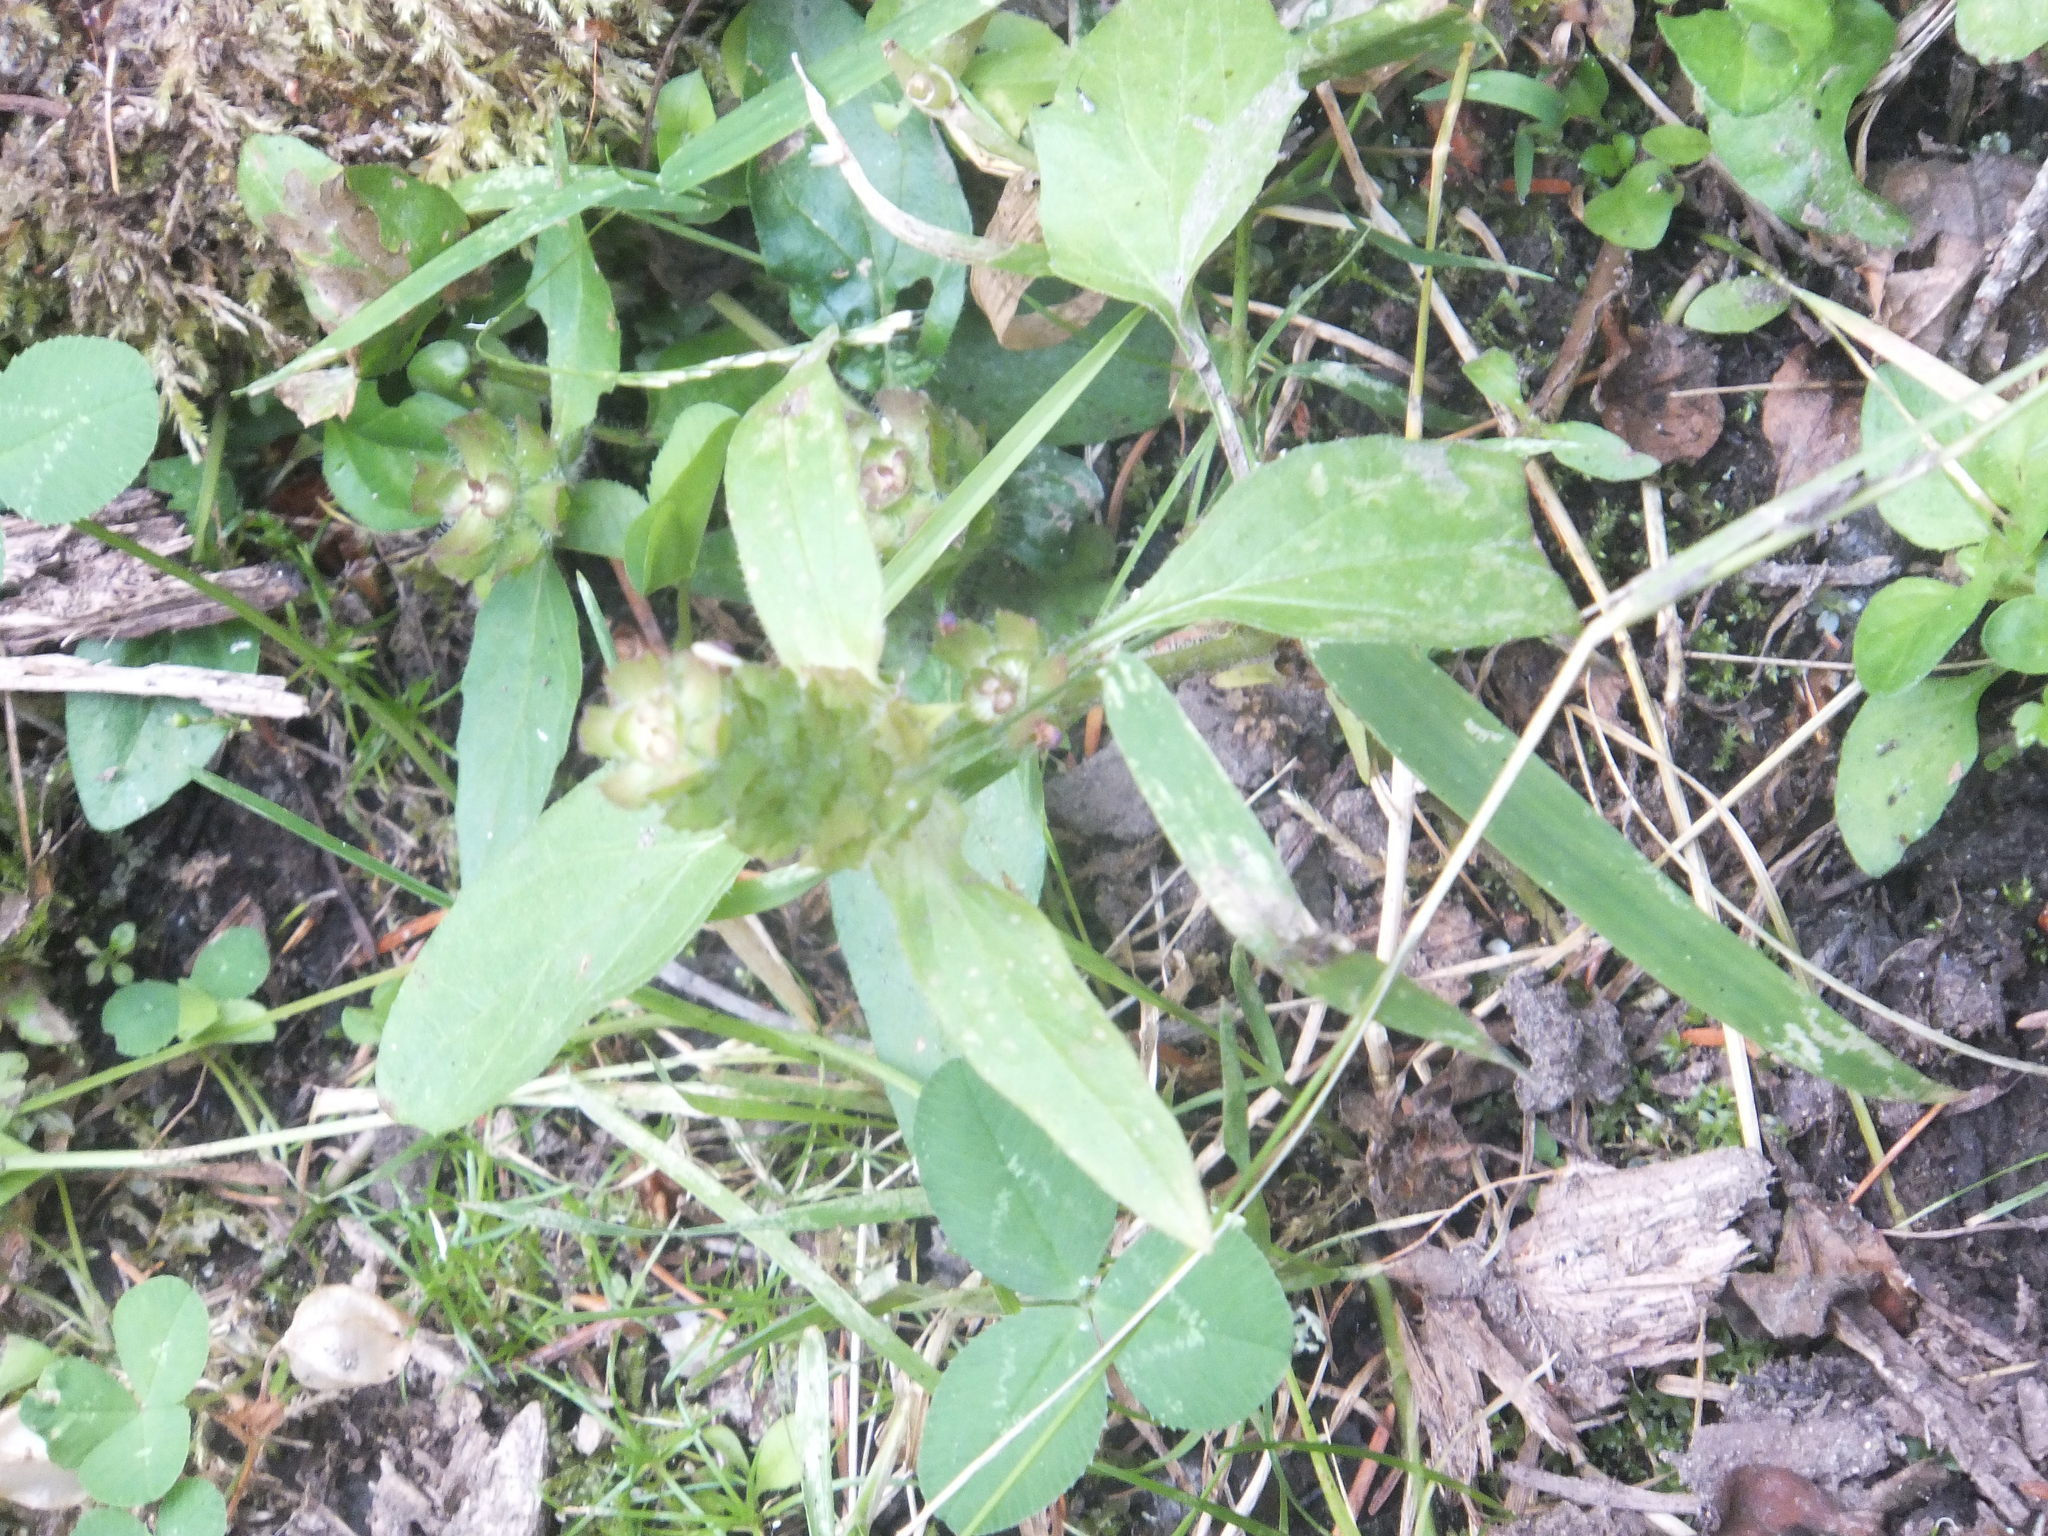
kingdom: Plantae
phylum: Tracheophyta
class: Magnoliopsida
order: Lamiales
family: Lamiaceae
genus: Prunella
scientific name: Prunella vulgaris
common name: Heal-all
